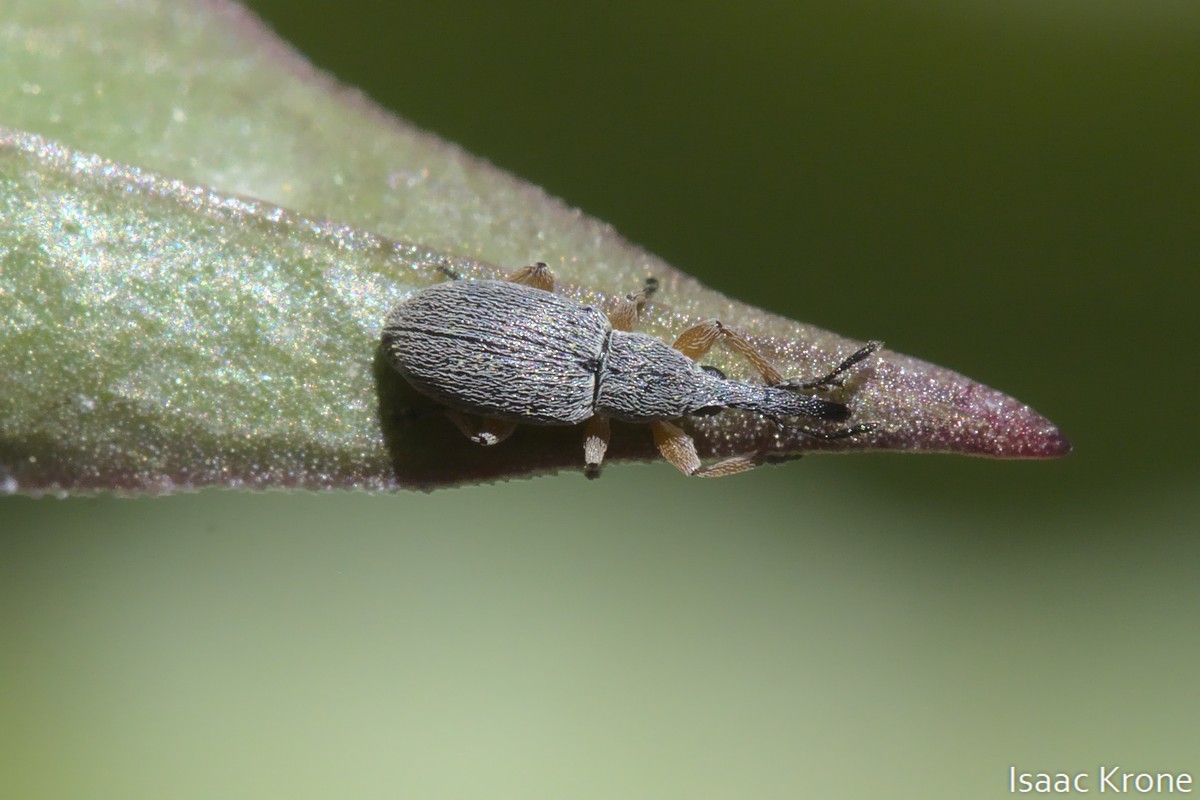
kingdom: Animalia
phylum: Arthropoda
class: Insecta
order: Coleoptera
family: Brentidae
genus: Rhopalapion
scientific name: Rhopalapion longirostre
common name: Hollyhock weevil
